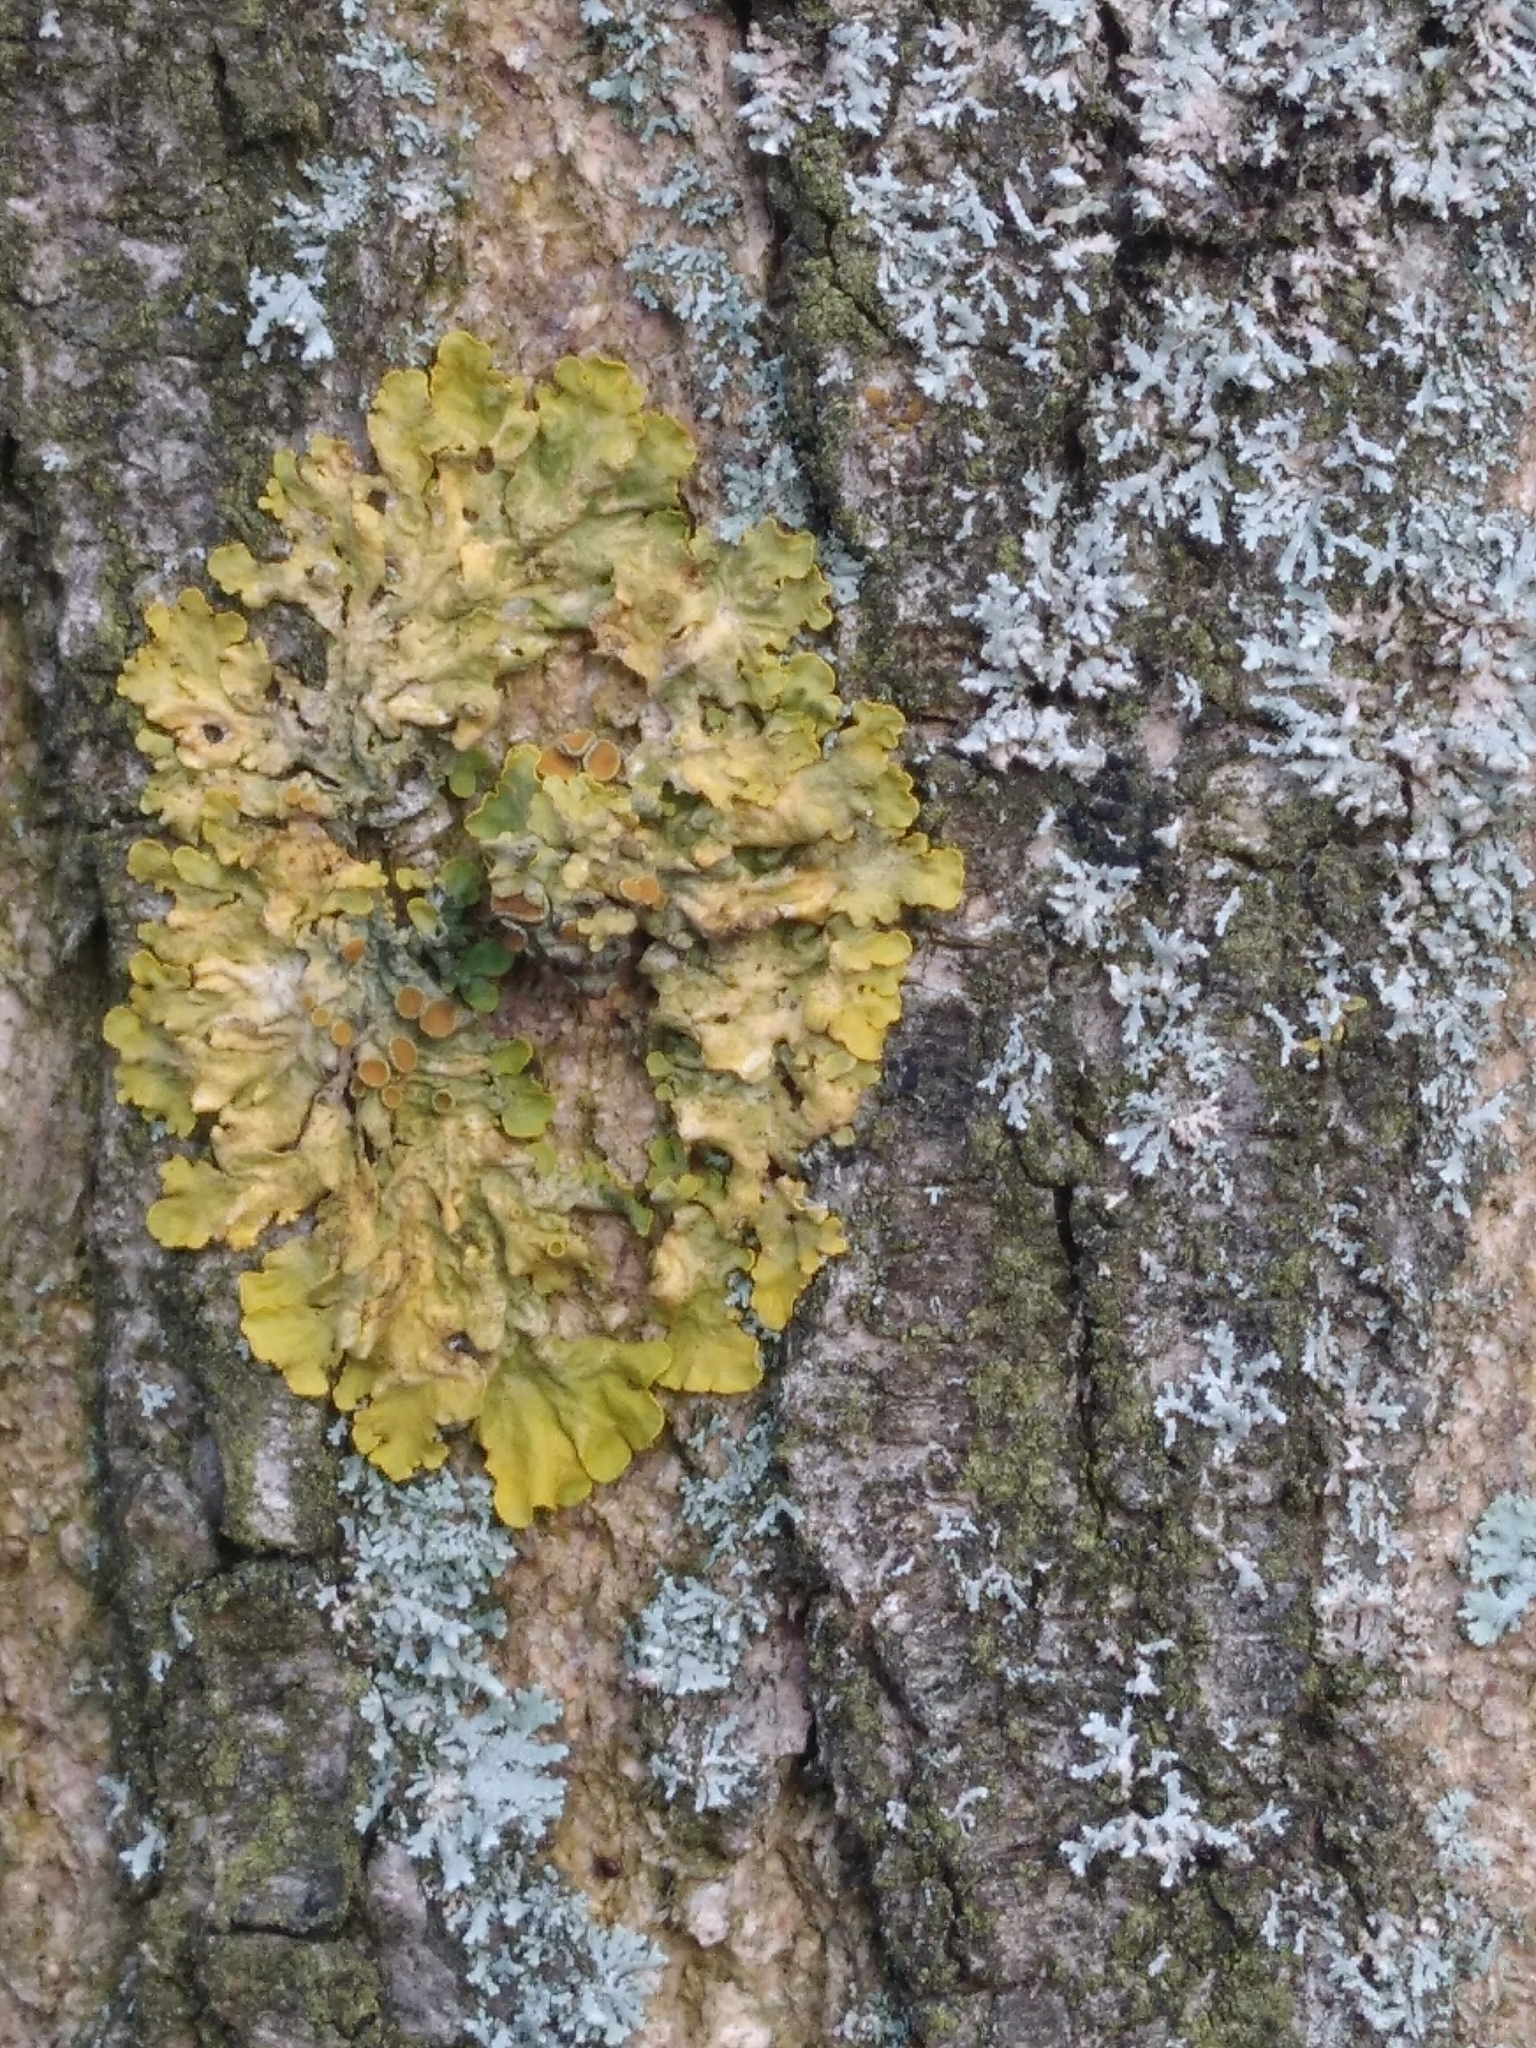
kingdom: Fungi
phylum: Ascomycota
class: Lecanoromycetes
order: Teloschistales
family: Teloschistaceae
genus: Xanthoria
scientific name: Xanthoria parietina
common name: Common orange lichen
